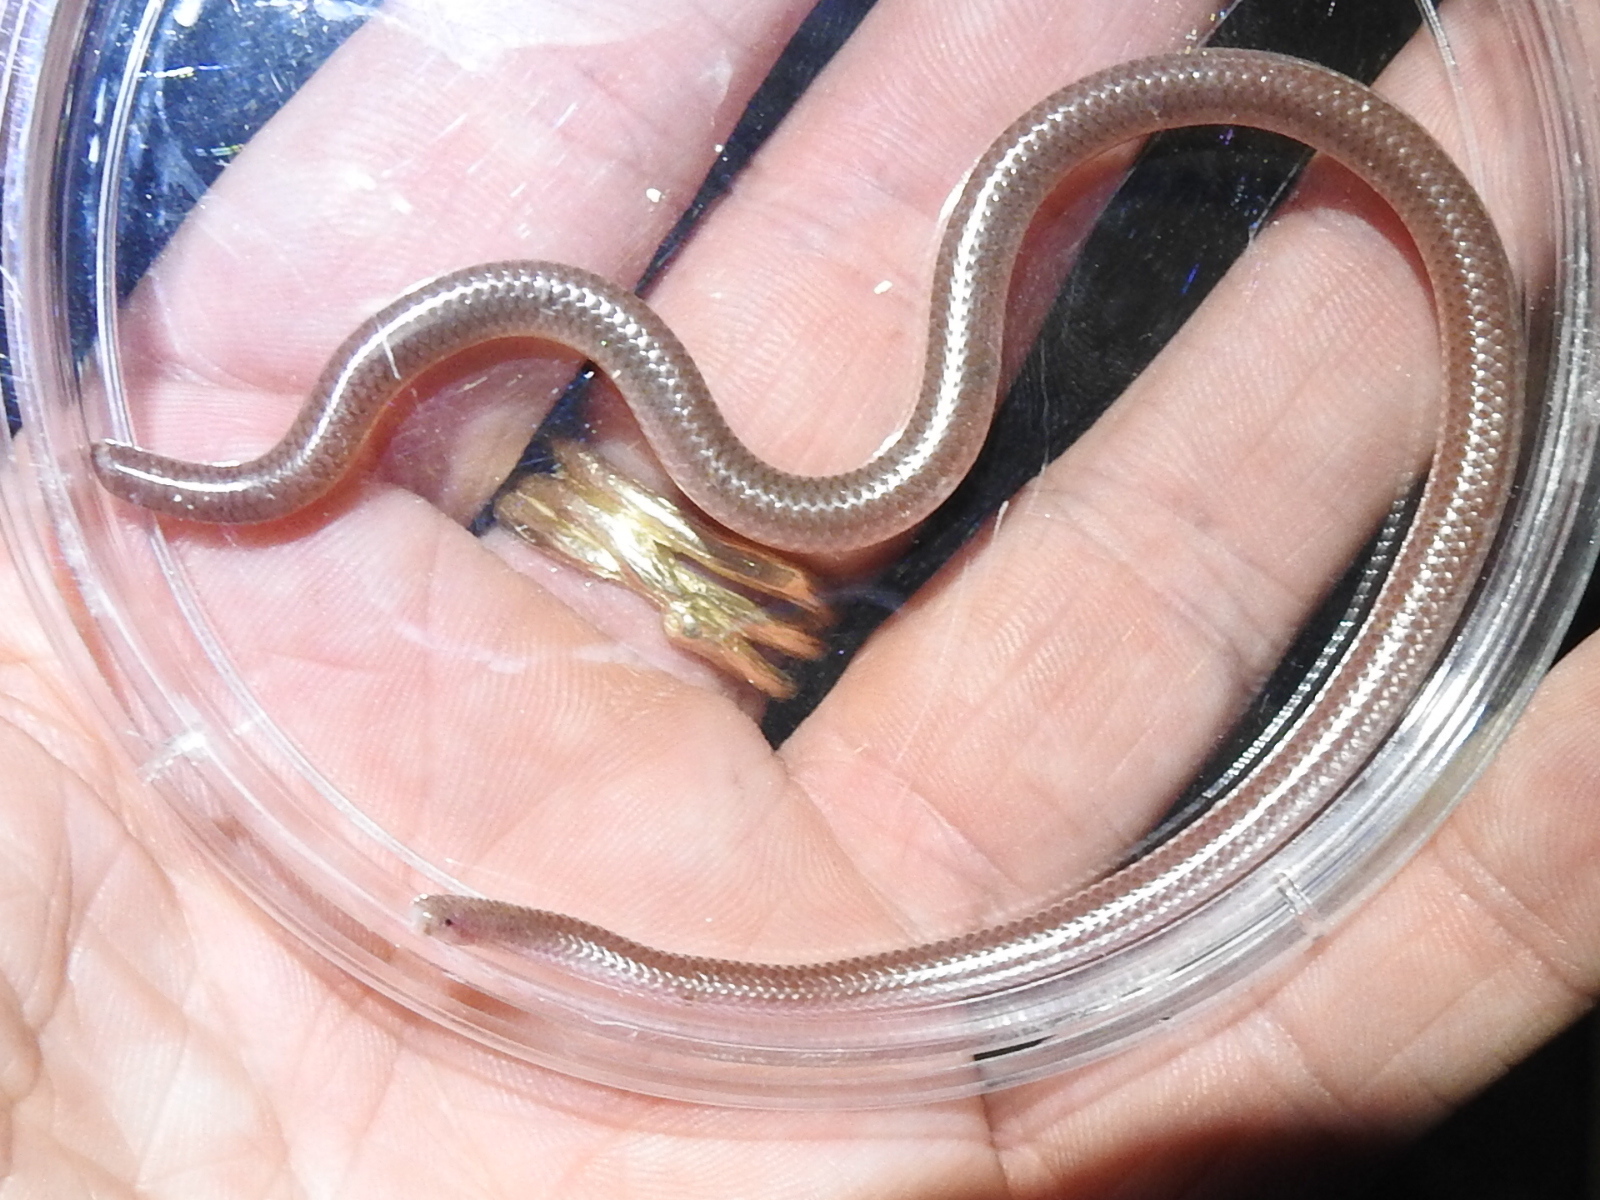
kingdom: Animalia
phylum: Chordata
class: Squamata
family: Leptotyphlopidae
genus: Rena
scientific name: Rena dulcis
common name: Texas blind snake
